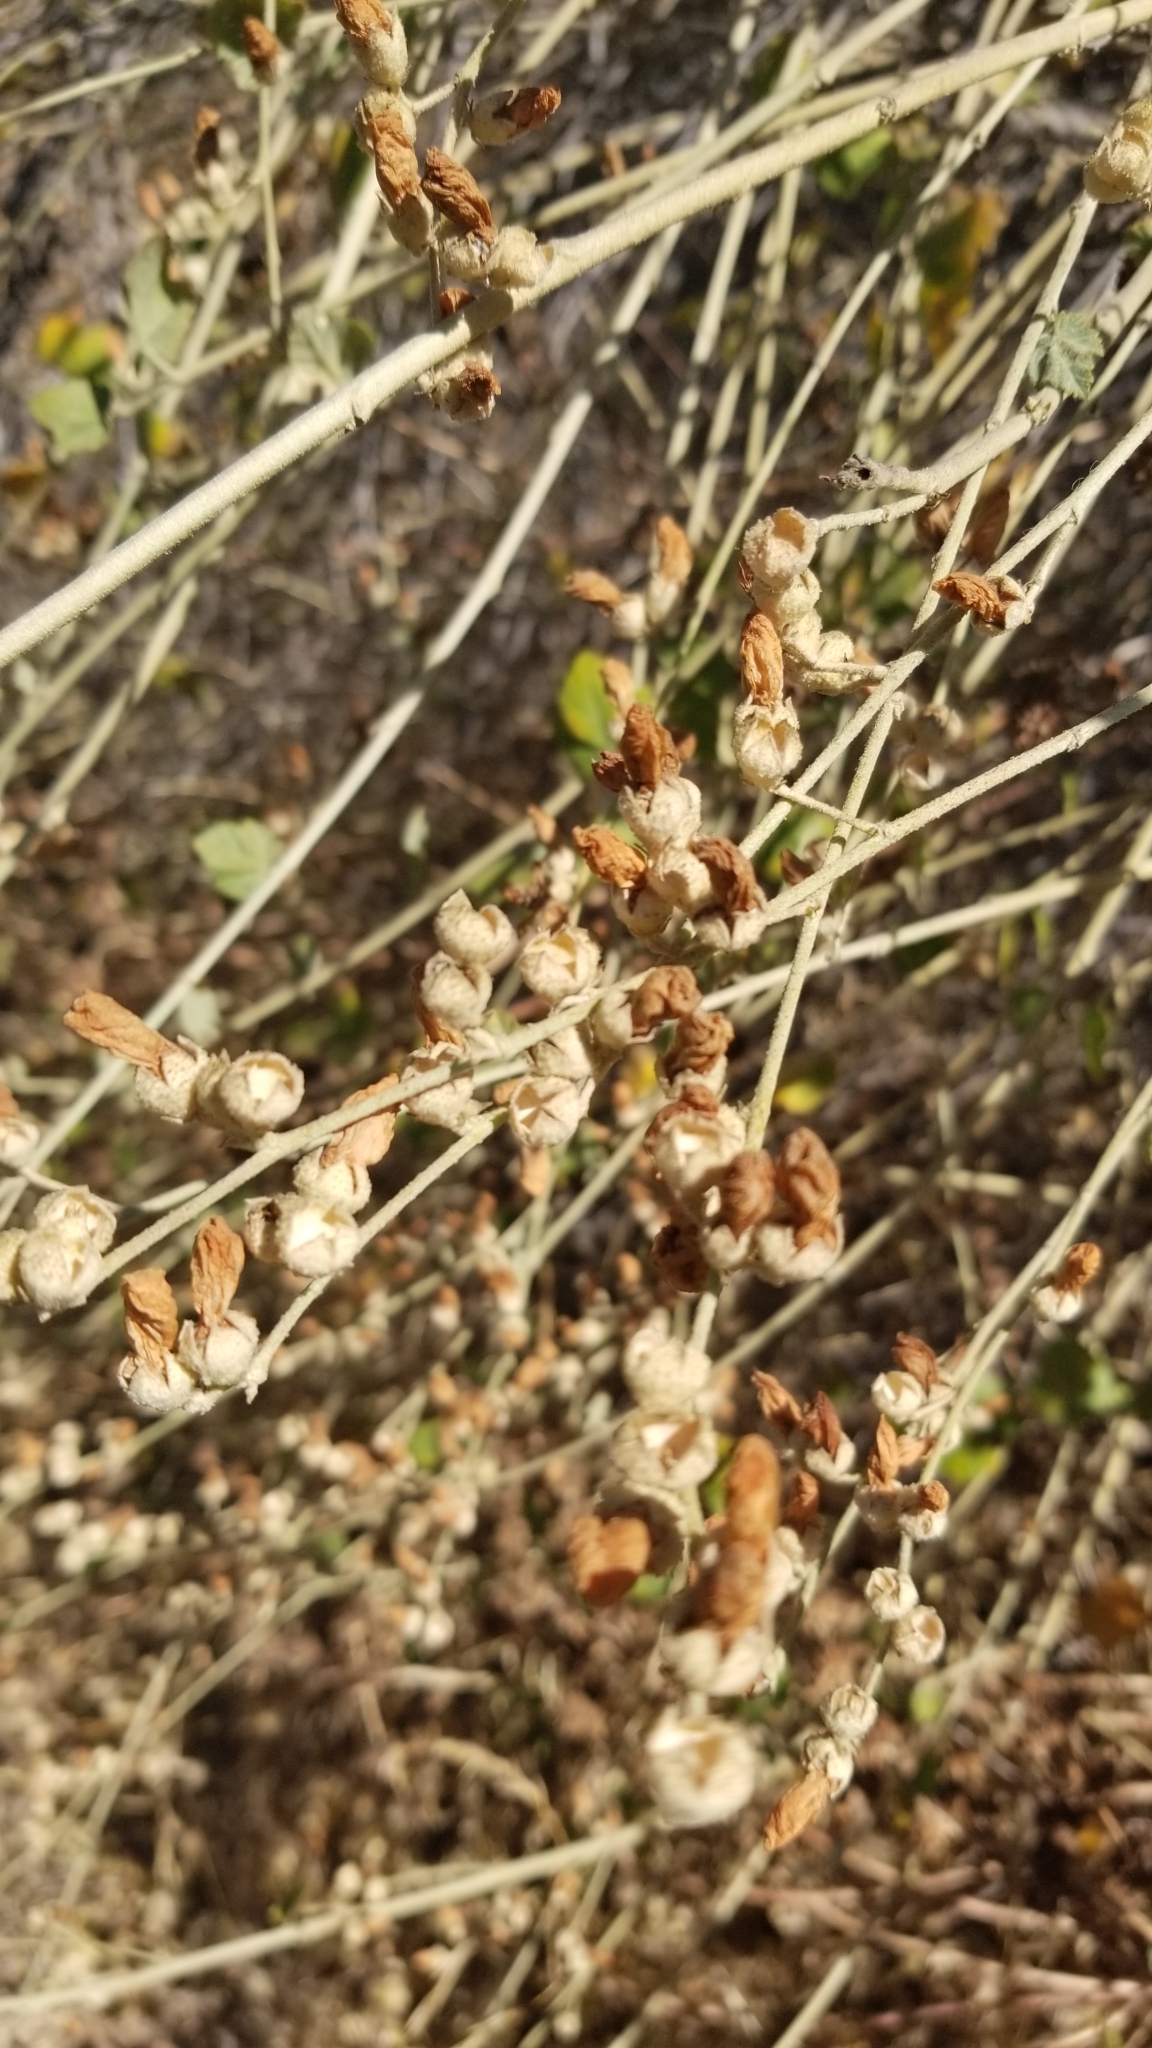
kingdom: Plantae
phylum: Tracheophyta
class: Magnoliopsida
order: Malvales
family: Malvaceae
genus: Malacothamnus
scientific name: Malacothamnus fasciculatus
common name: Sant cruz island bush-mallow
